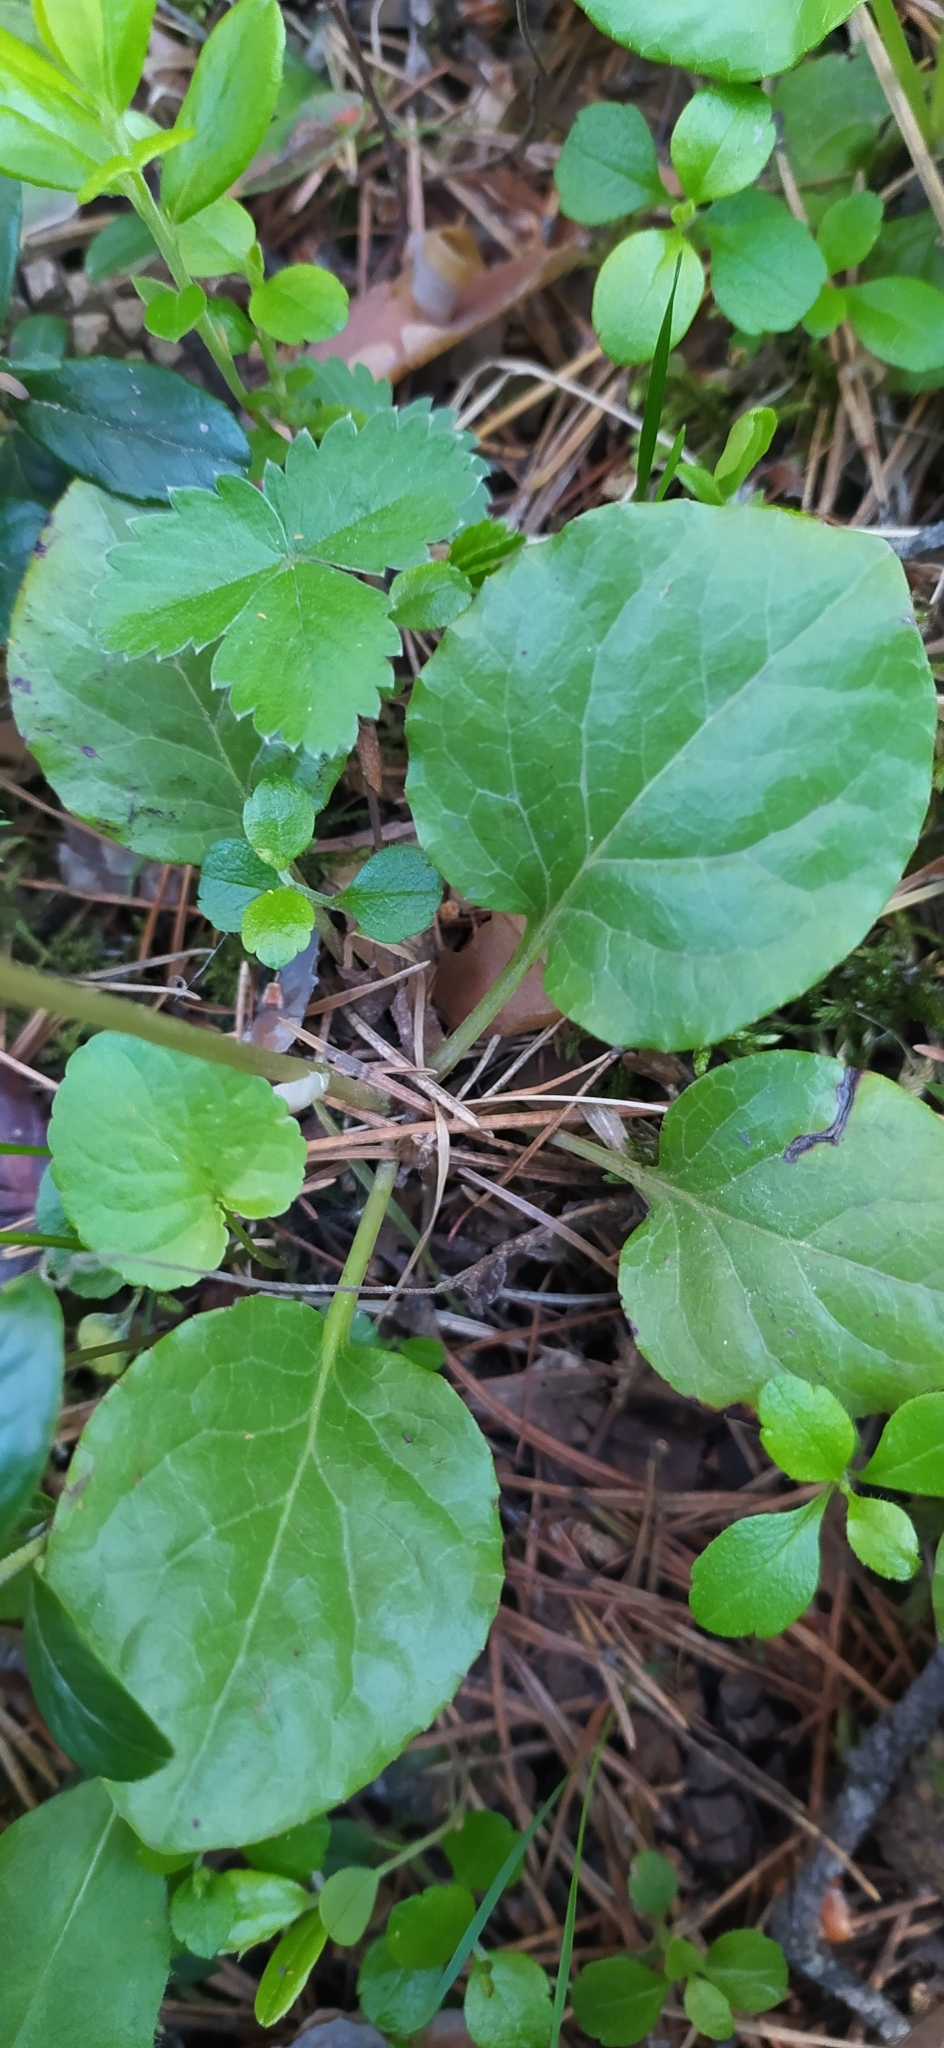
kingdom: Plantae
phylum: Tracheophyta
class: Magnoliopsida
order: Ericales
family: Ericaceae
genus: Pyrola
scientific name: Pyrola asarifolia
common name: Bog wintergreen
